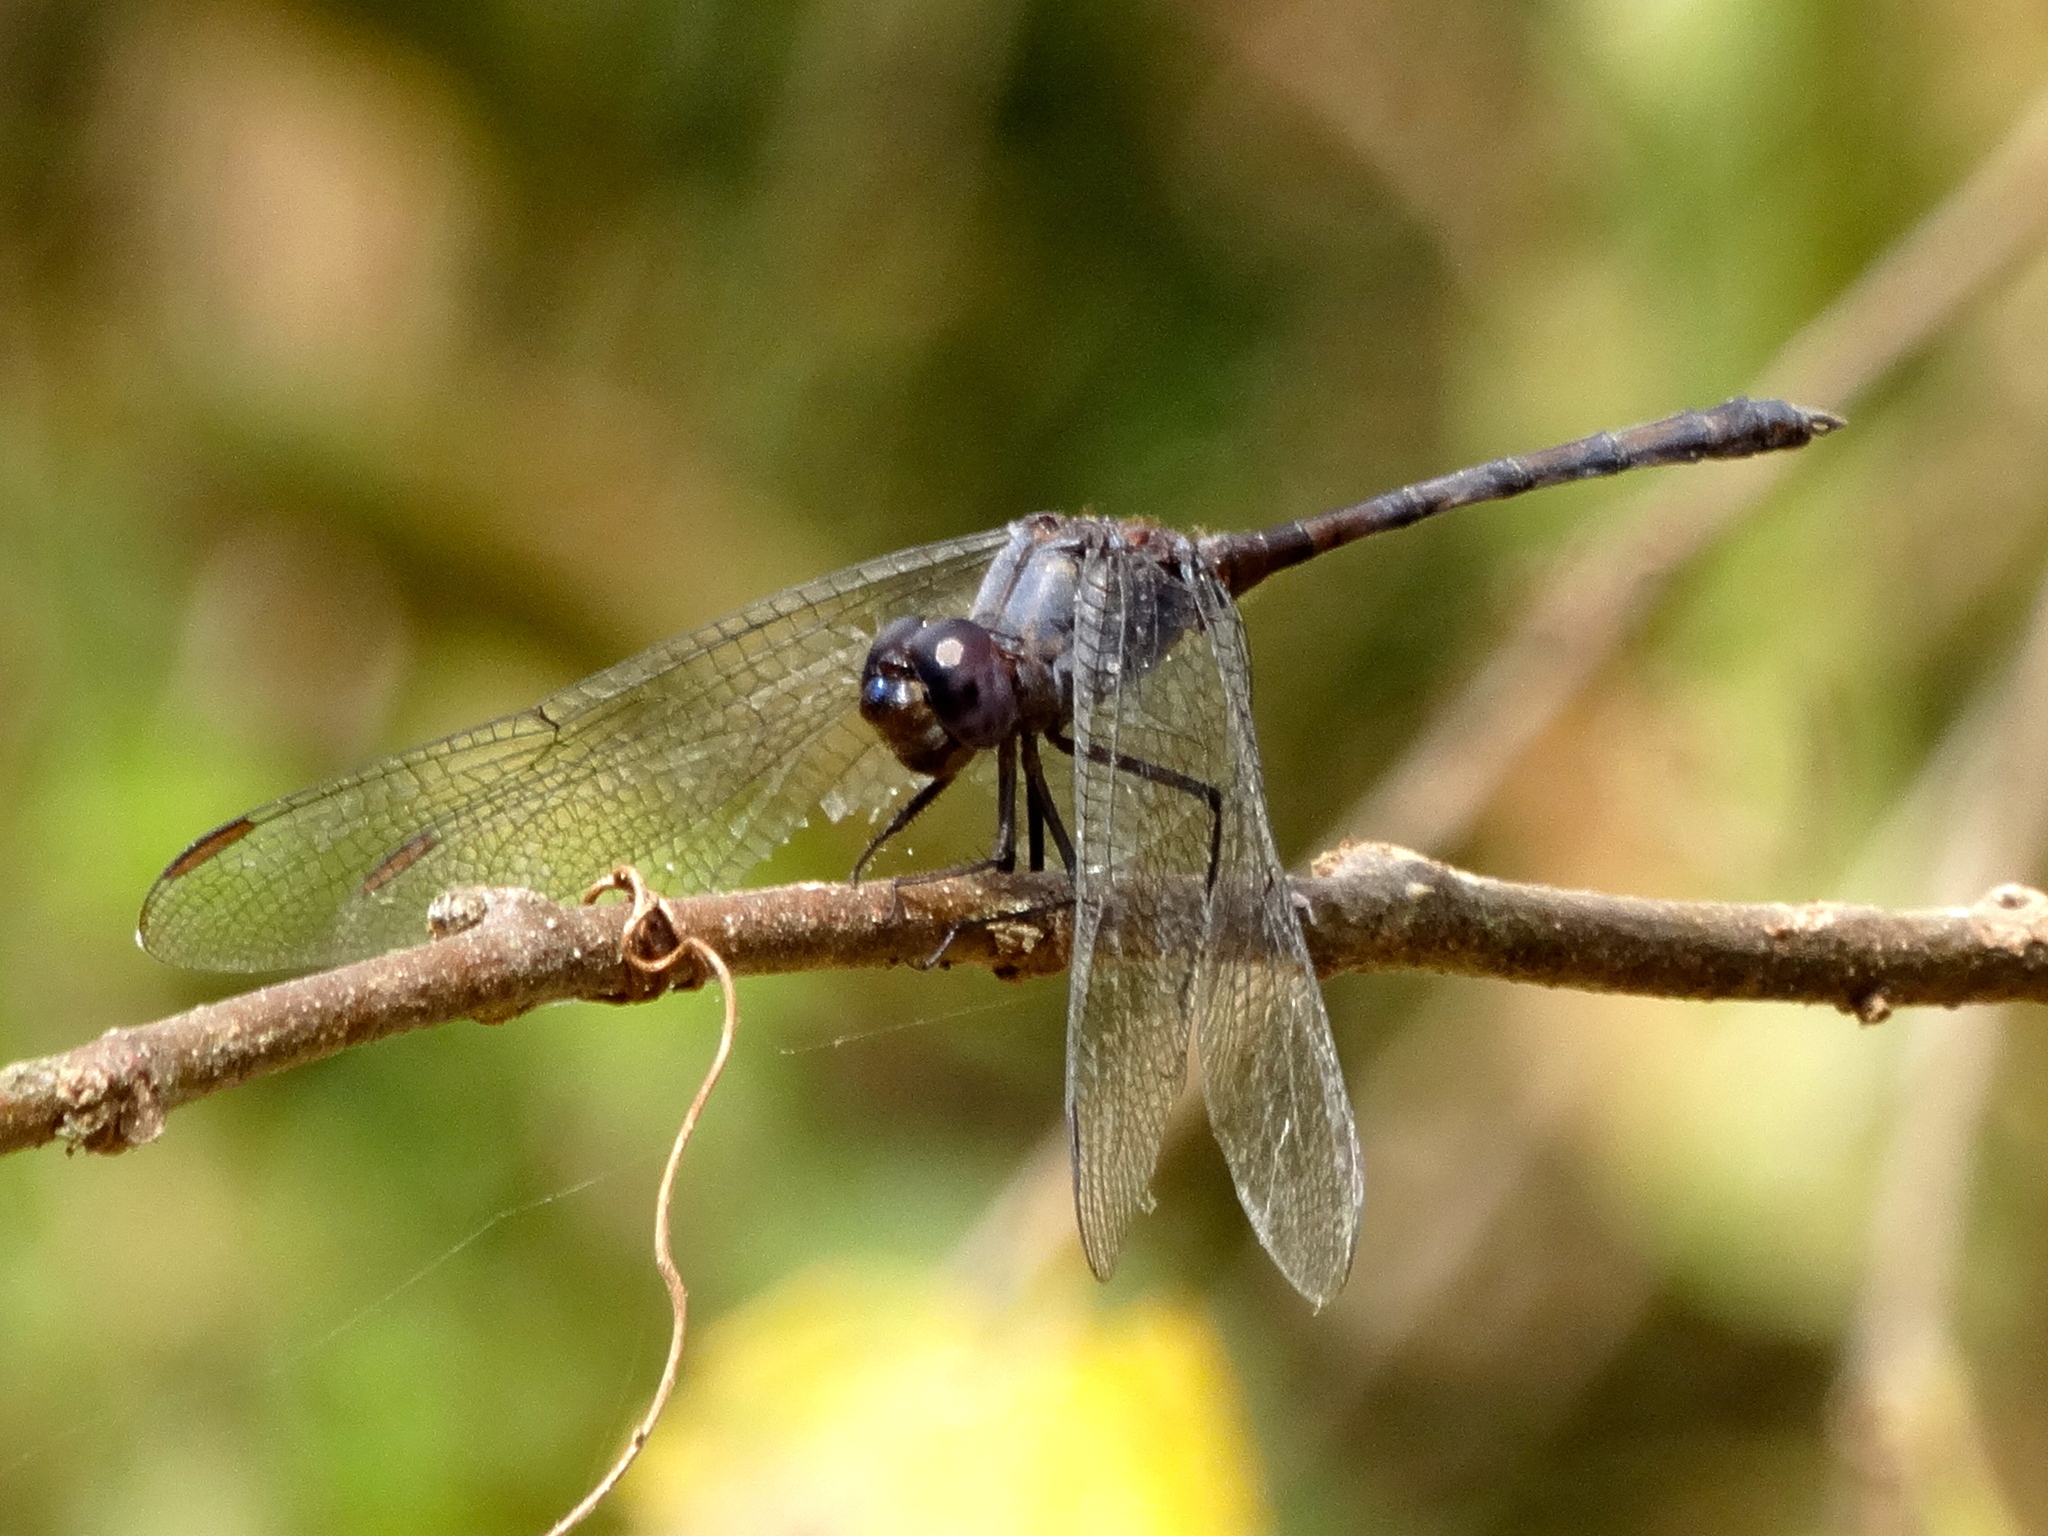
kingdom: Animalia
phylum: Arthropoda
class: Insecta
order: Odonata
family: Libellulidae
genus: Dythemis
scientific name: Dythemis nigrescens
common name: Black setwing
